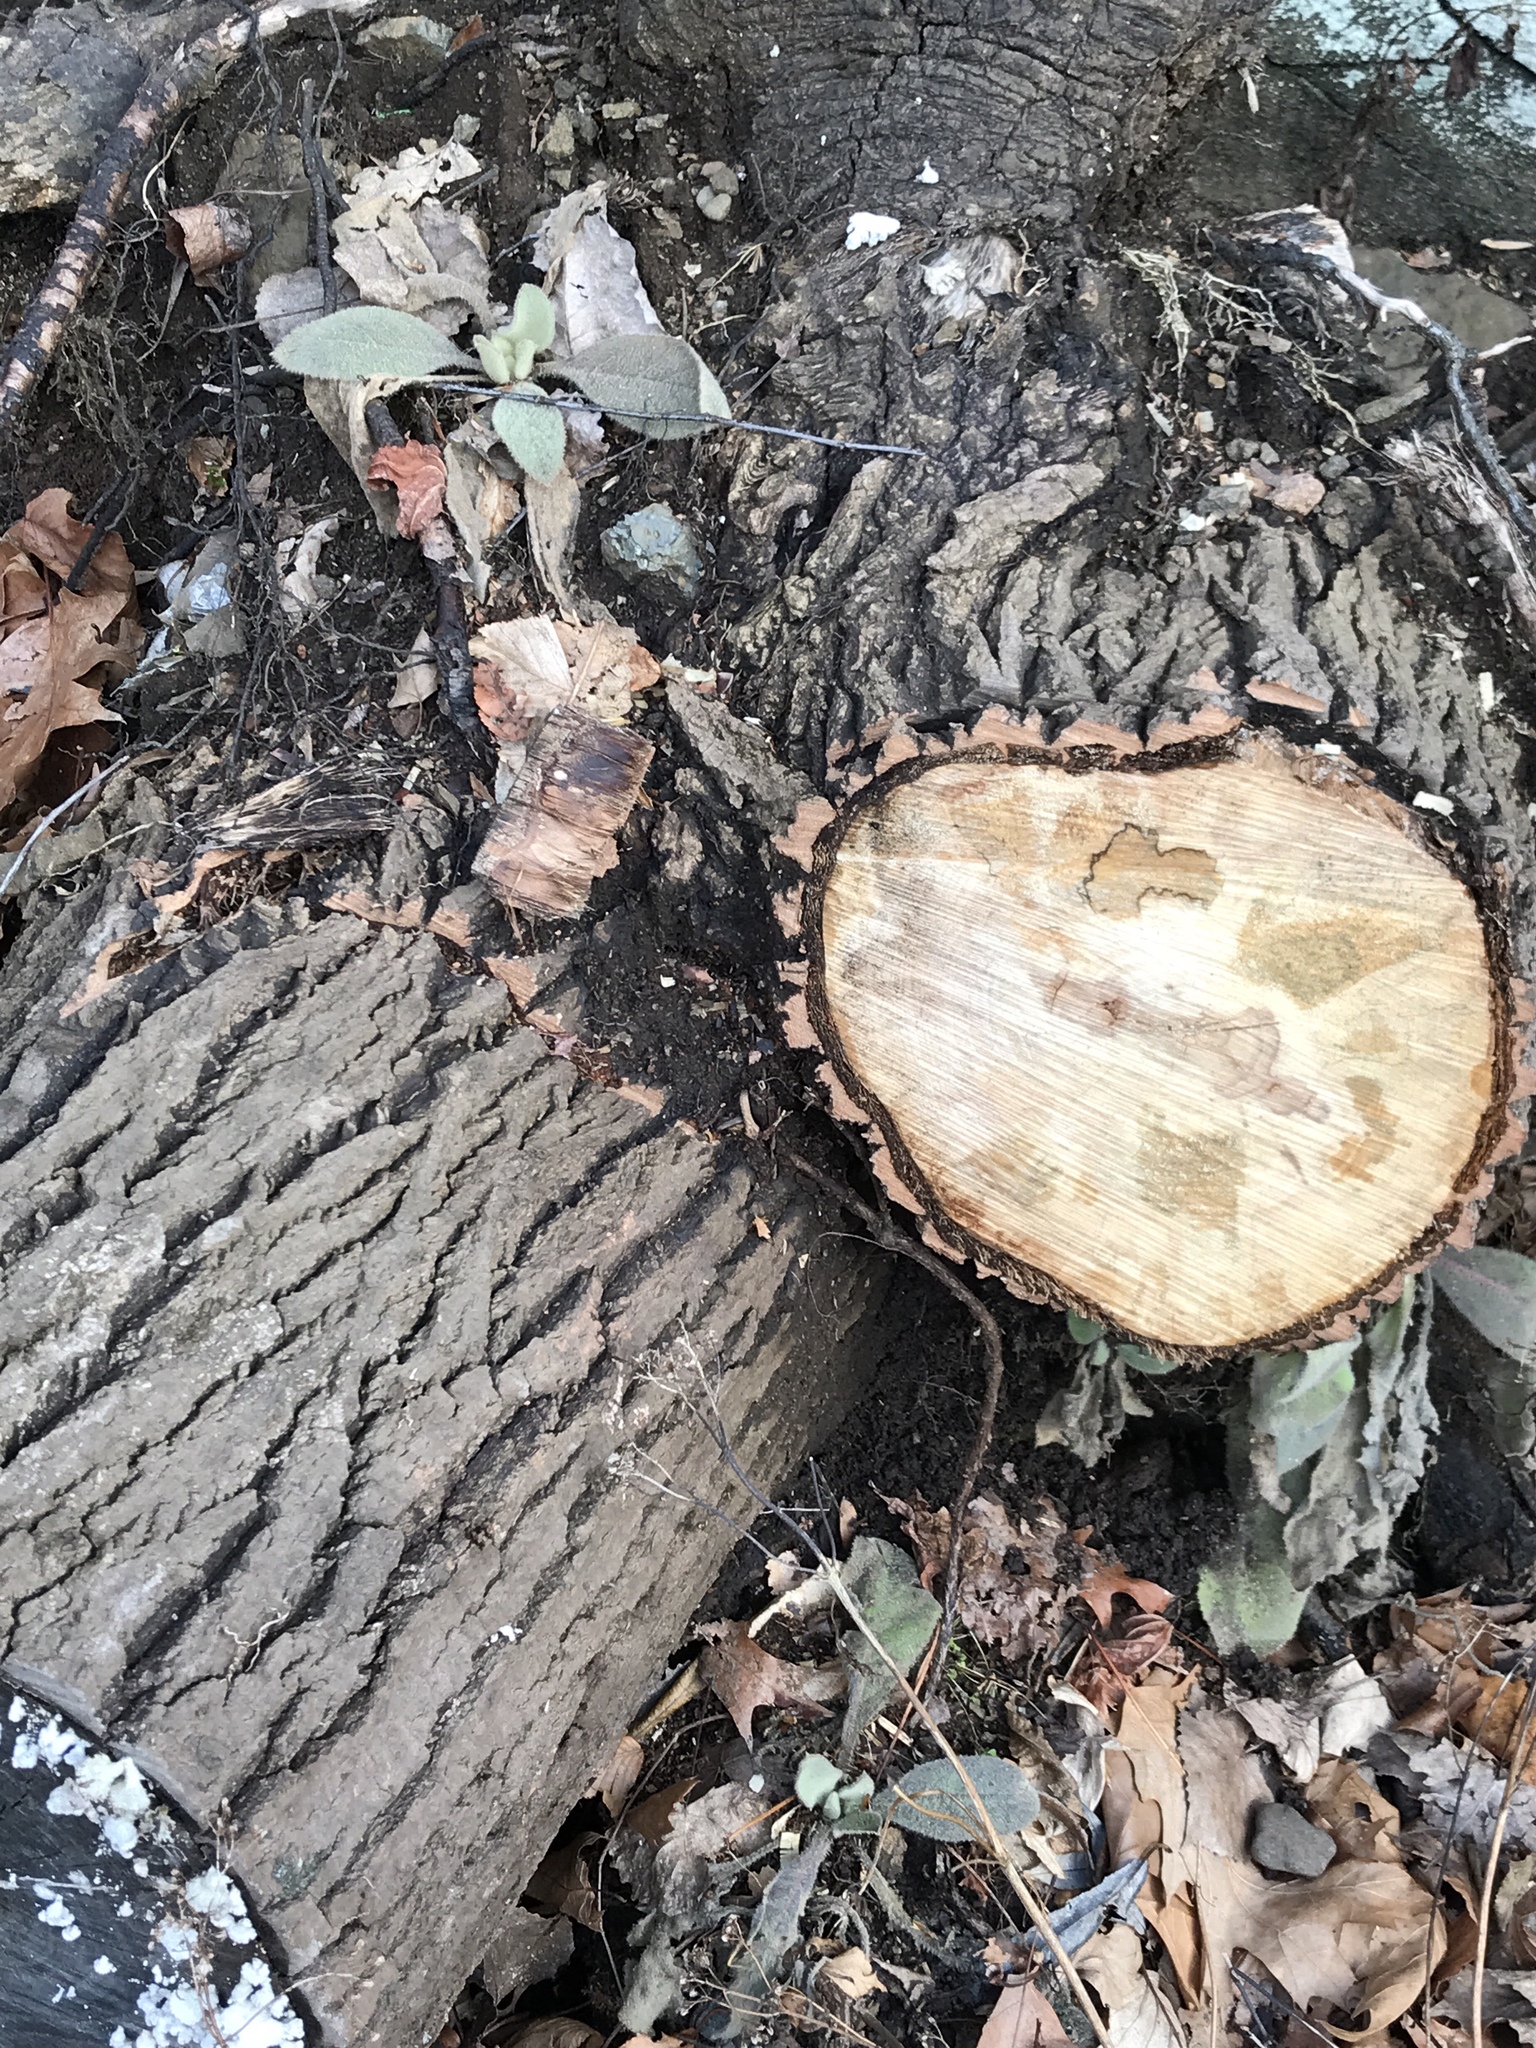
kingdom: Plantae
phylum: Tracheophyta
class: Magnoliopsida
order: Lamiales
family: Scrophulariaceae
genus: Verbascum
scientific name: Verbascum thapsus
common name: Common mullein
